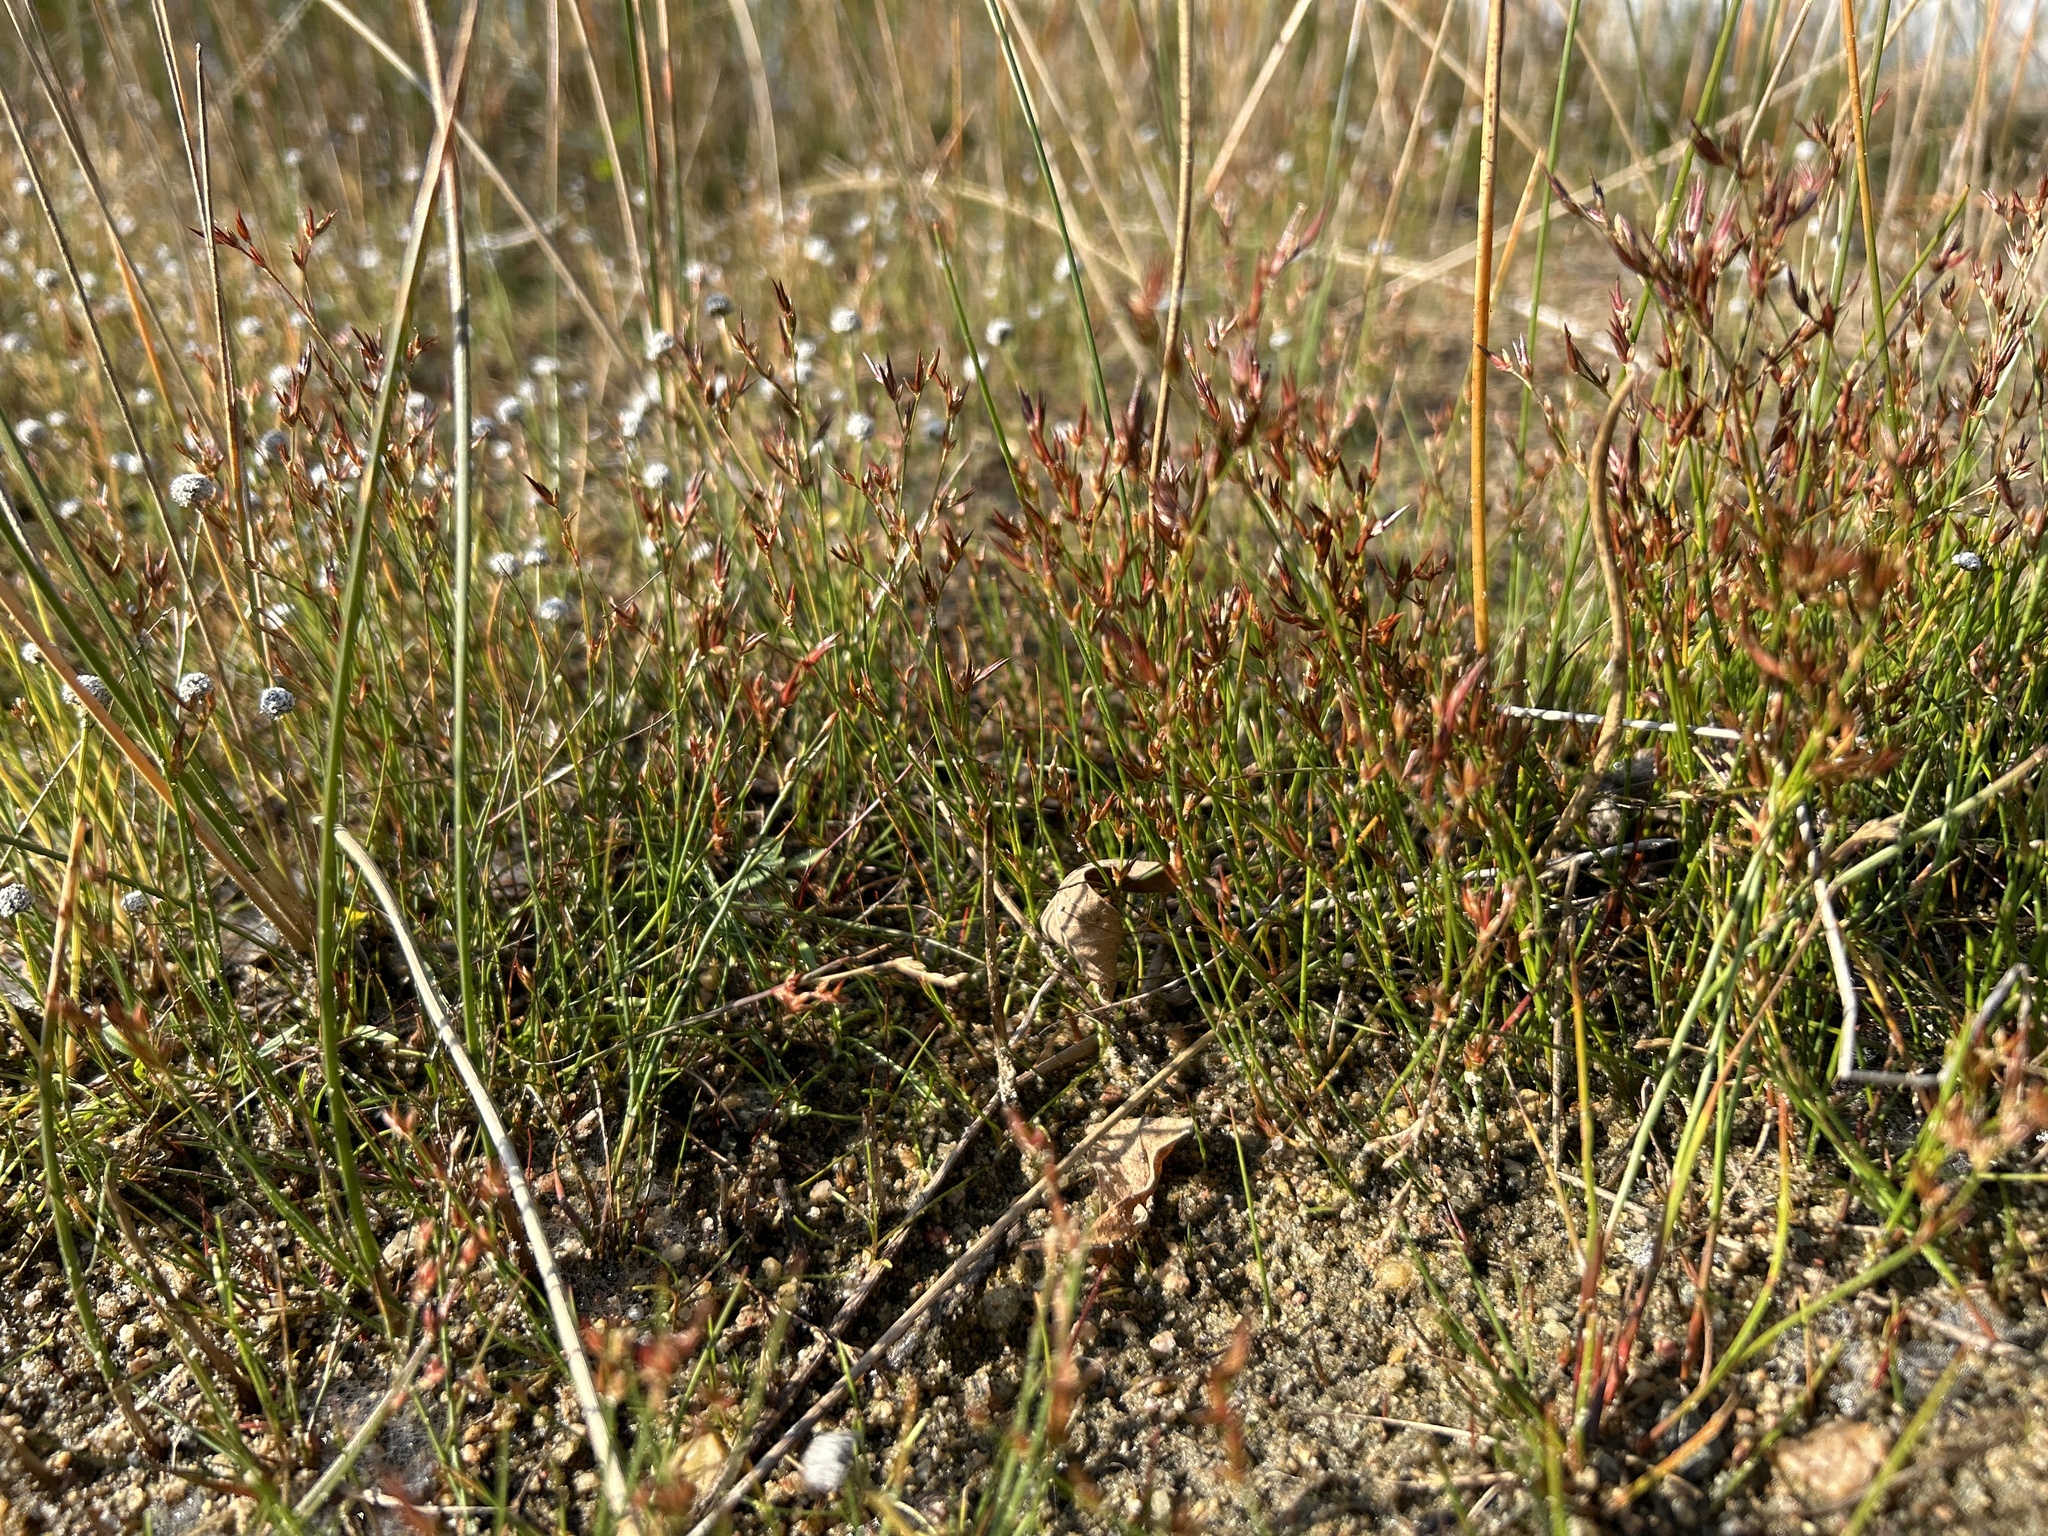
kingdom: Plantae
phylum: Tracheophyta
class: Liliopsida
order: Poales
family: Juncaceae
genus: Juncus
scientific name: Juncus pelocarpus
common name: Brown-fruited rush
